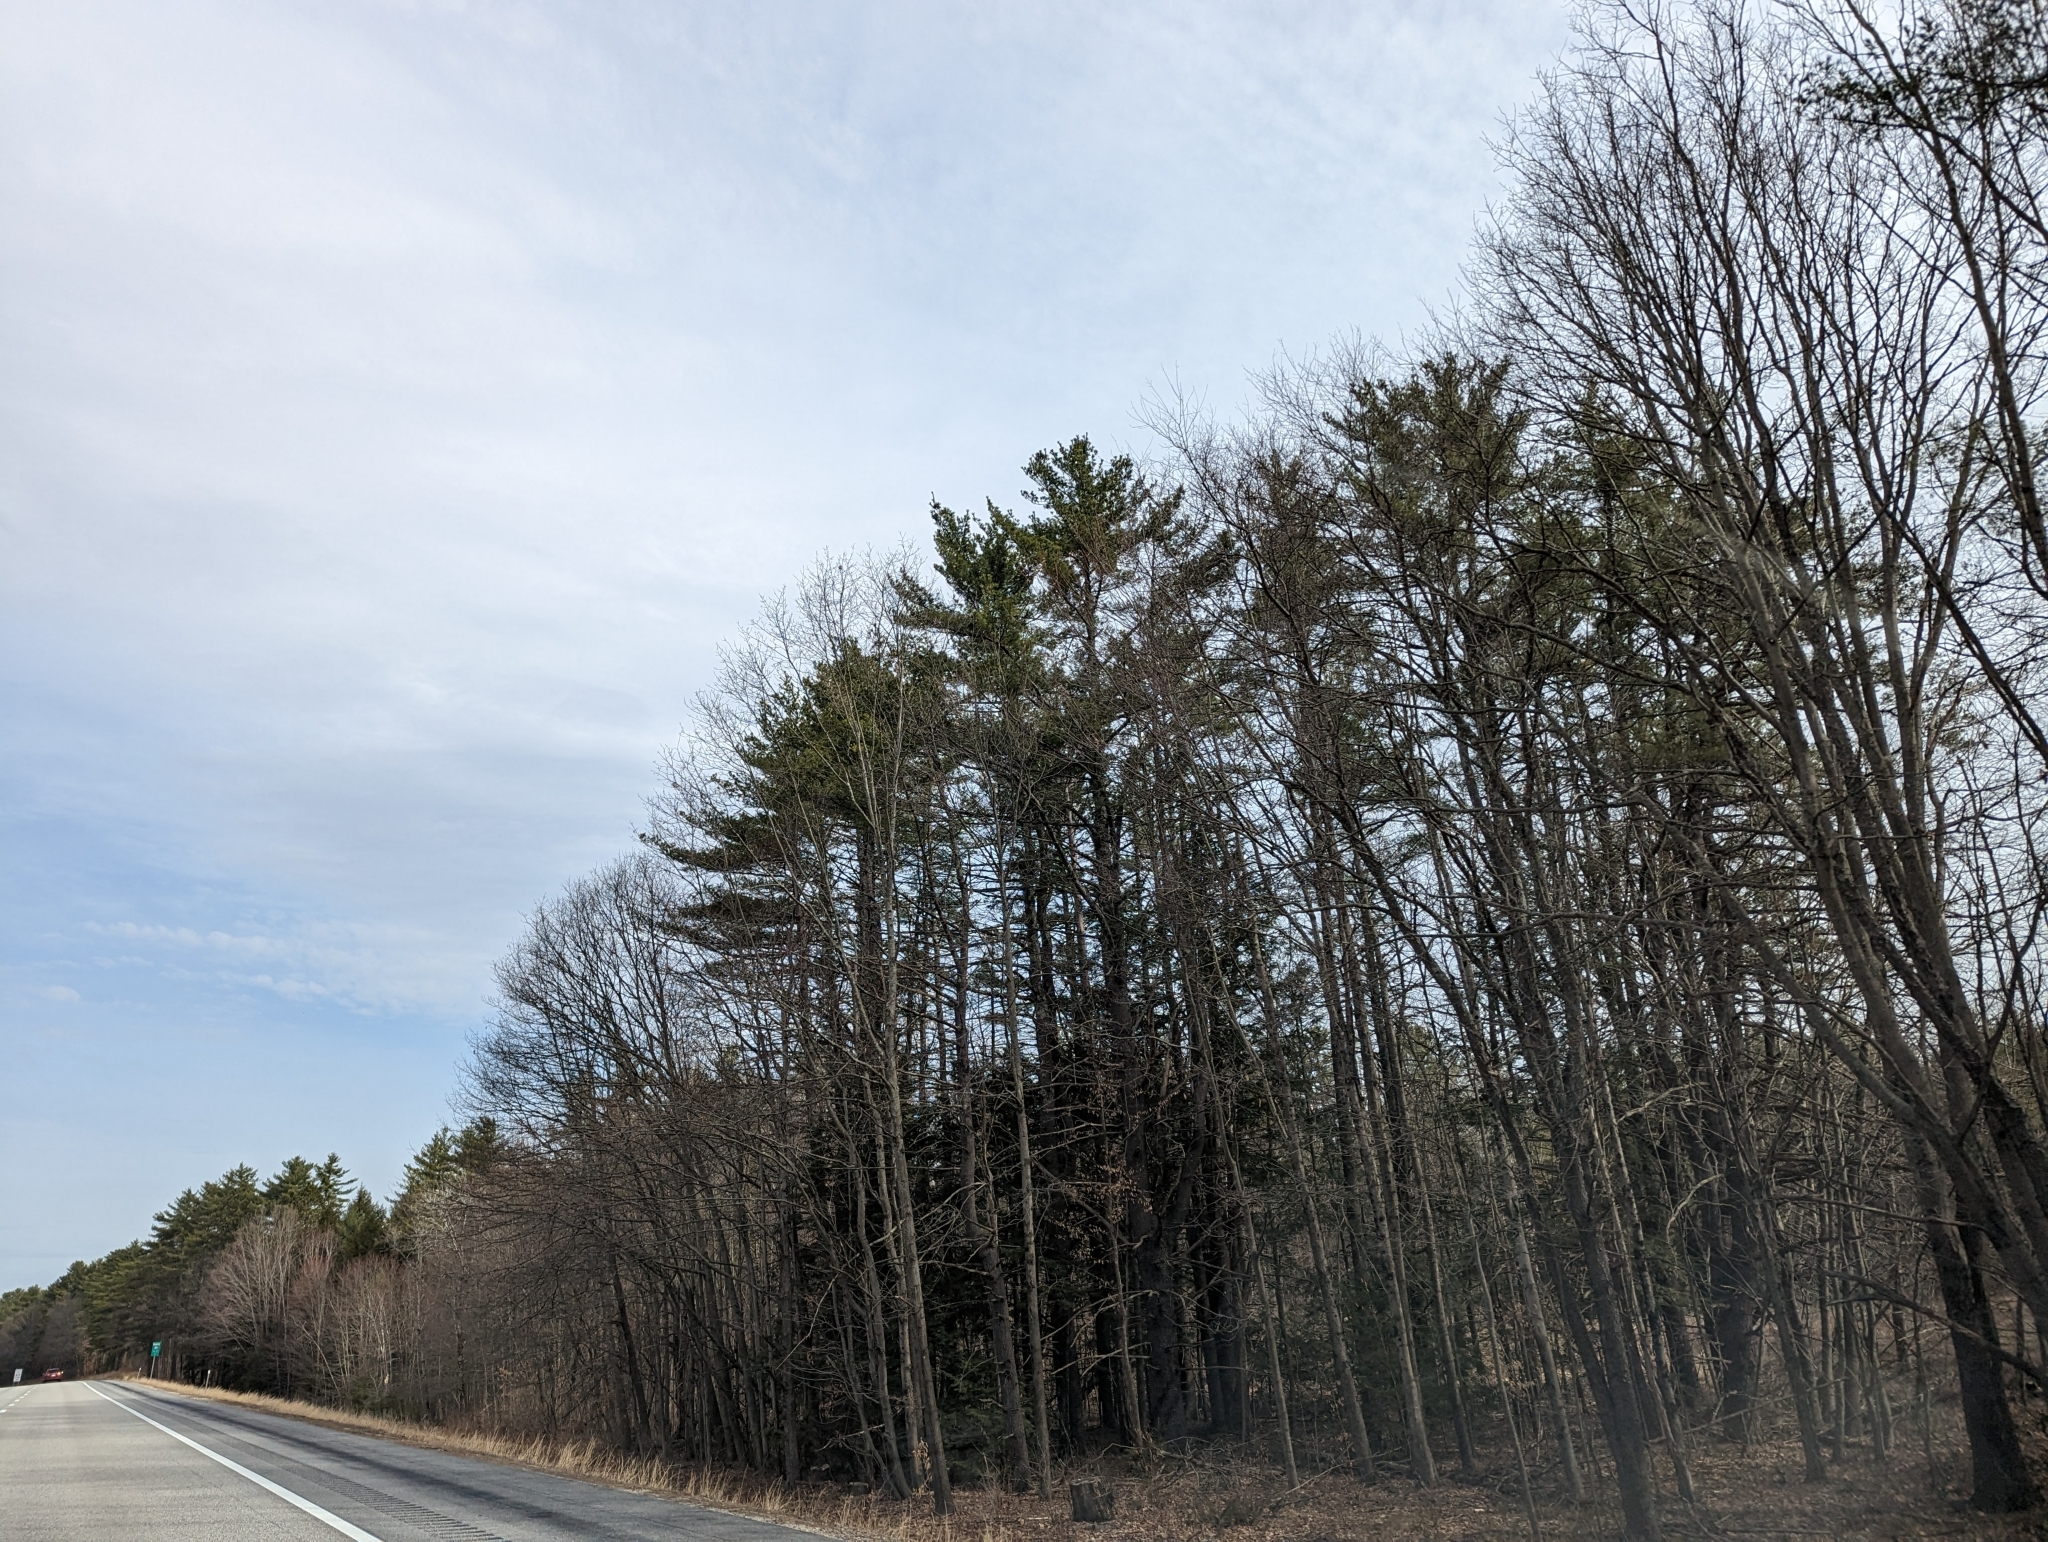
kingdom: Plantae
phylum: Tracheophyta
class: Pinopsida
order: Pinales
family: Pinaceae
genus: Pinus
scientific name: Pinus strobus
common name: Weymouth pine
